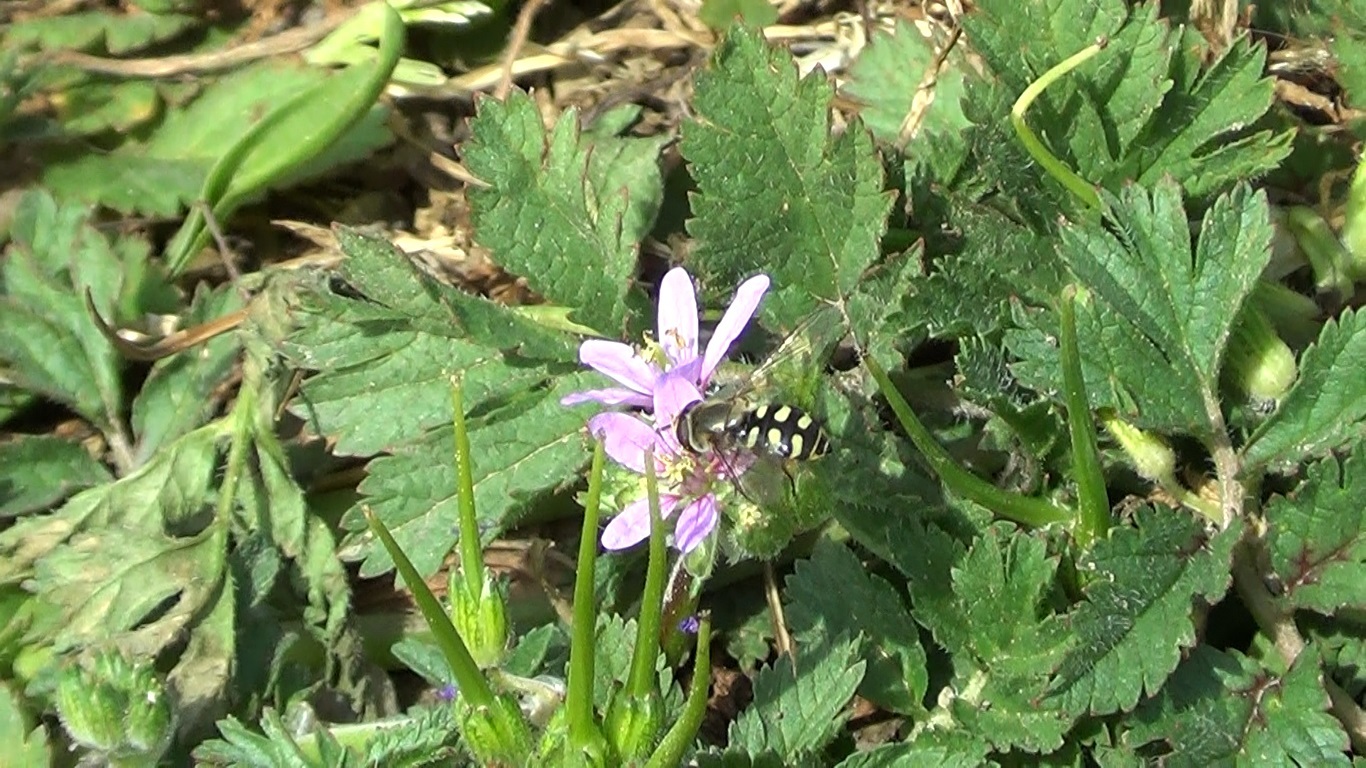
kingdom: Animalia
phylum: Arthropoda
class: Insecta
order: Diptera
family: Syrphidae
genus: Eupeodes
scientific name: Eupeodes corollae
